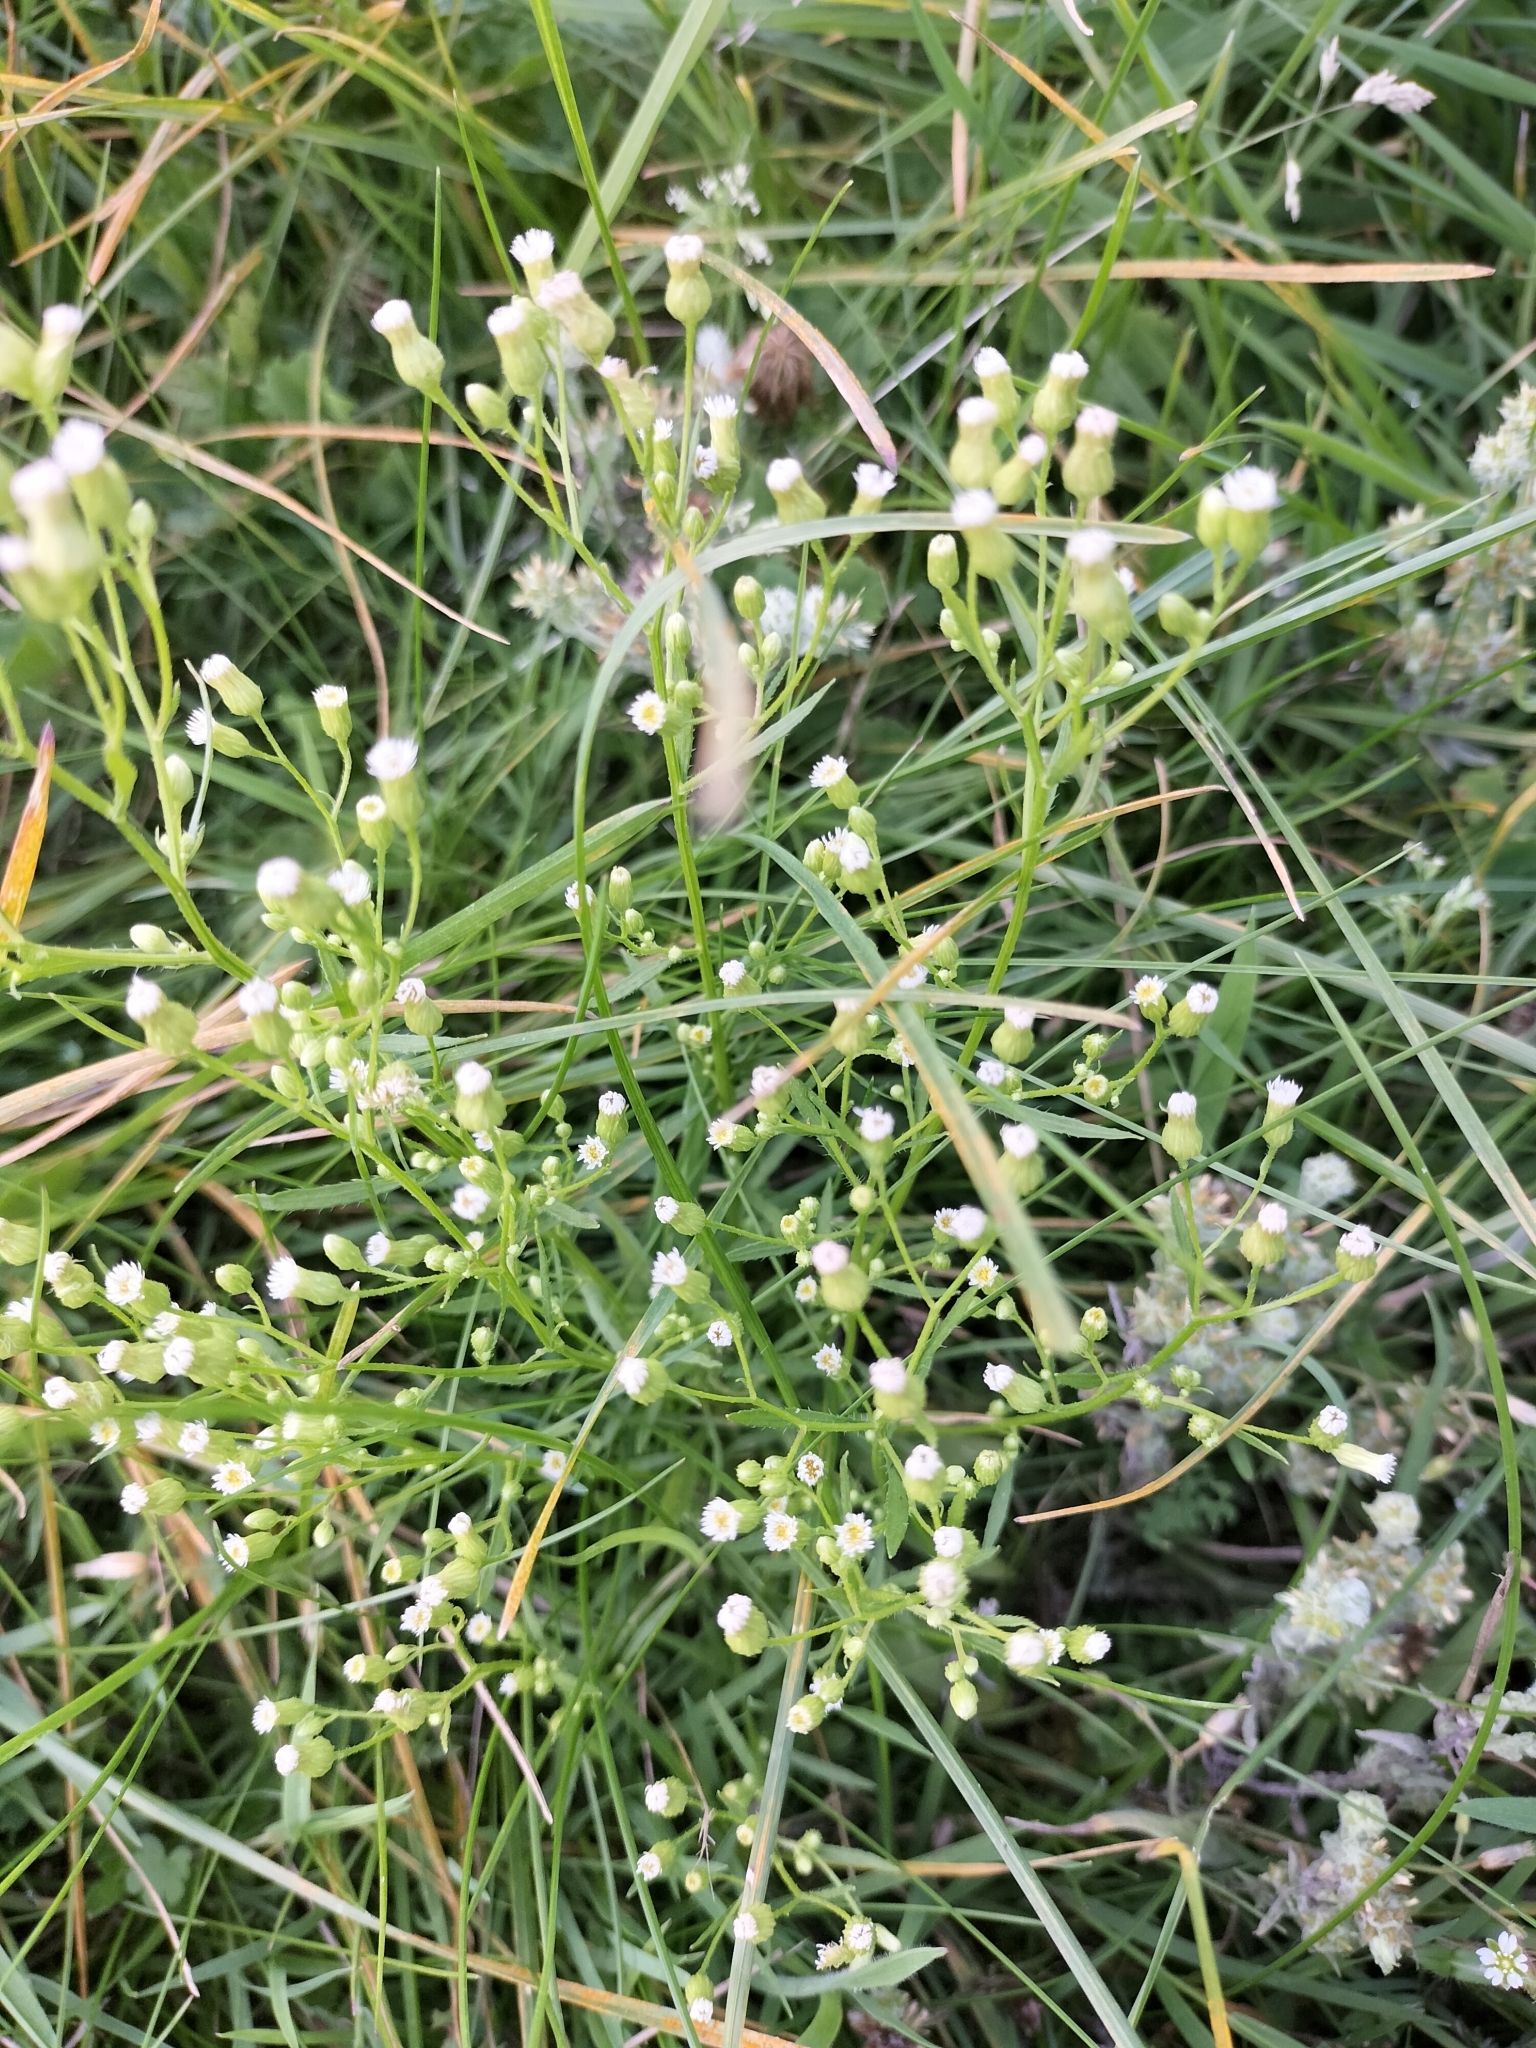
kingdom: Plantae
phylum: Tracheophyta
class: Magnoliopsida
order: Asterales
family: Asteraceae
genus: Erigeron
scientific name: Erigeron canadensis
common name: Canadian fleabane
